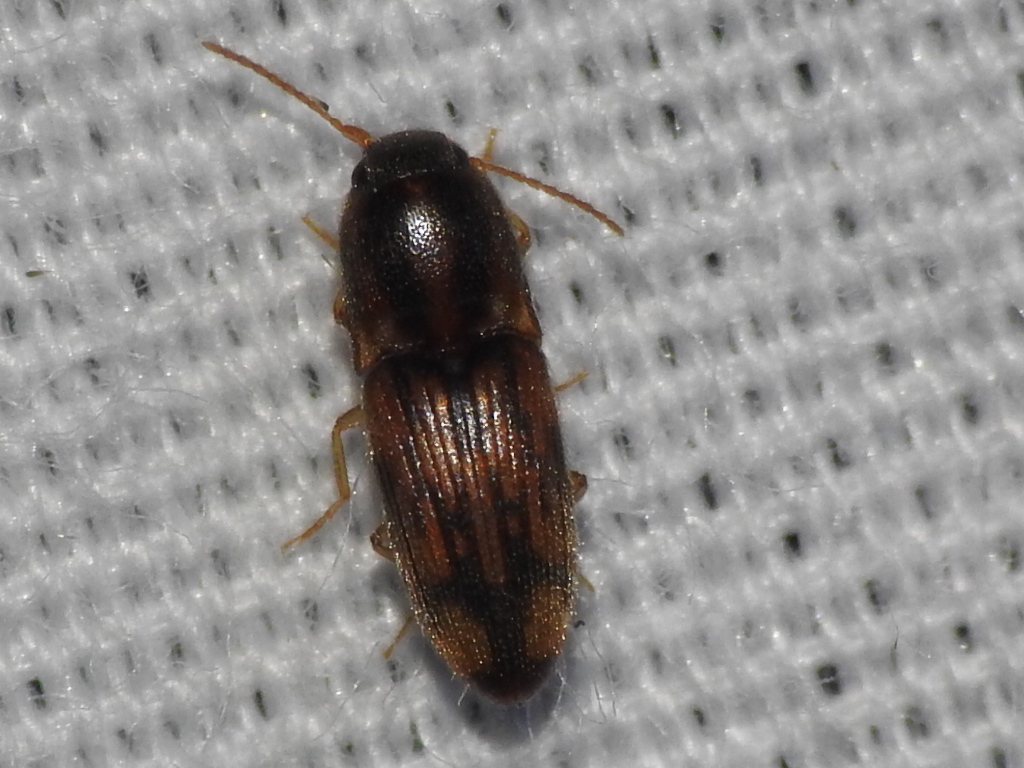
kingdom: Animalia
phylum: Arthropoda
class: Insecta
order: Coleoptera
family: Elateridae
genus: Monocrepidius
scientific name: Monocrepidius bellus
